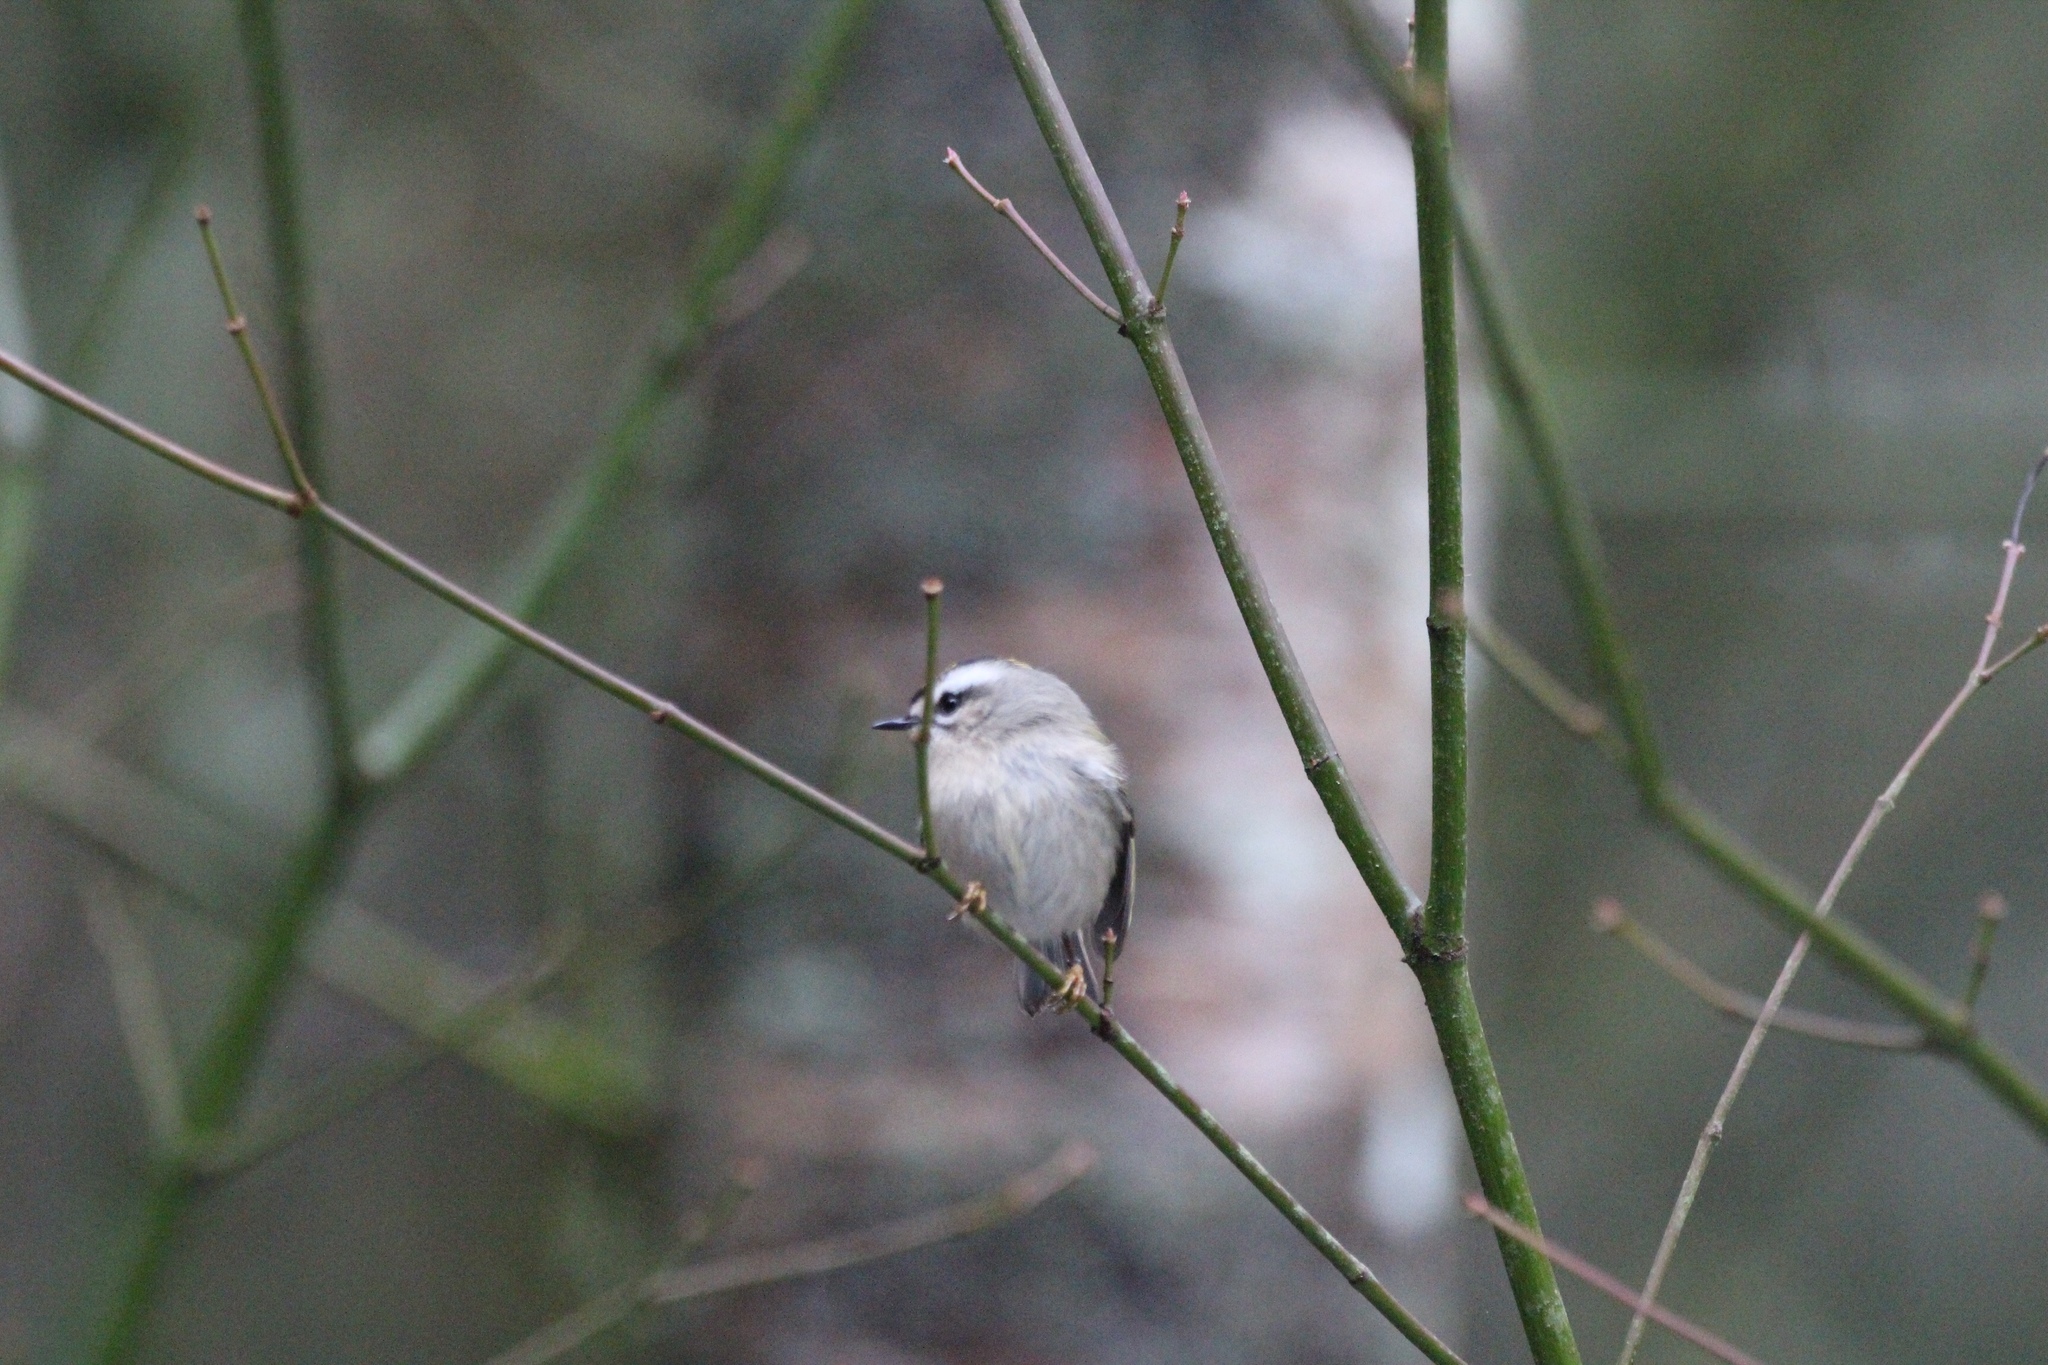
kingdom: Animalia
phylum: Chordata
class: Aves
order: Passeriformes
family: Regulidae
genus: Regulus
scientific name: Regulus satrapa
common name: Golden-crowned kinglet
